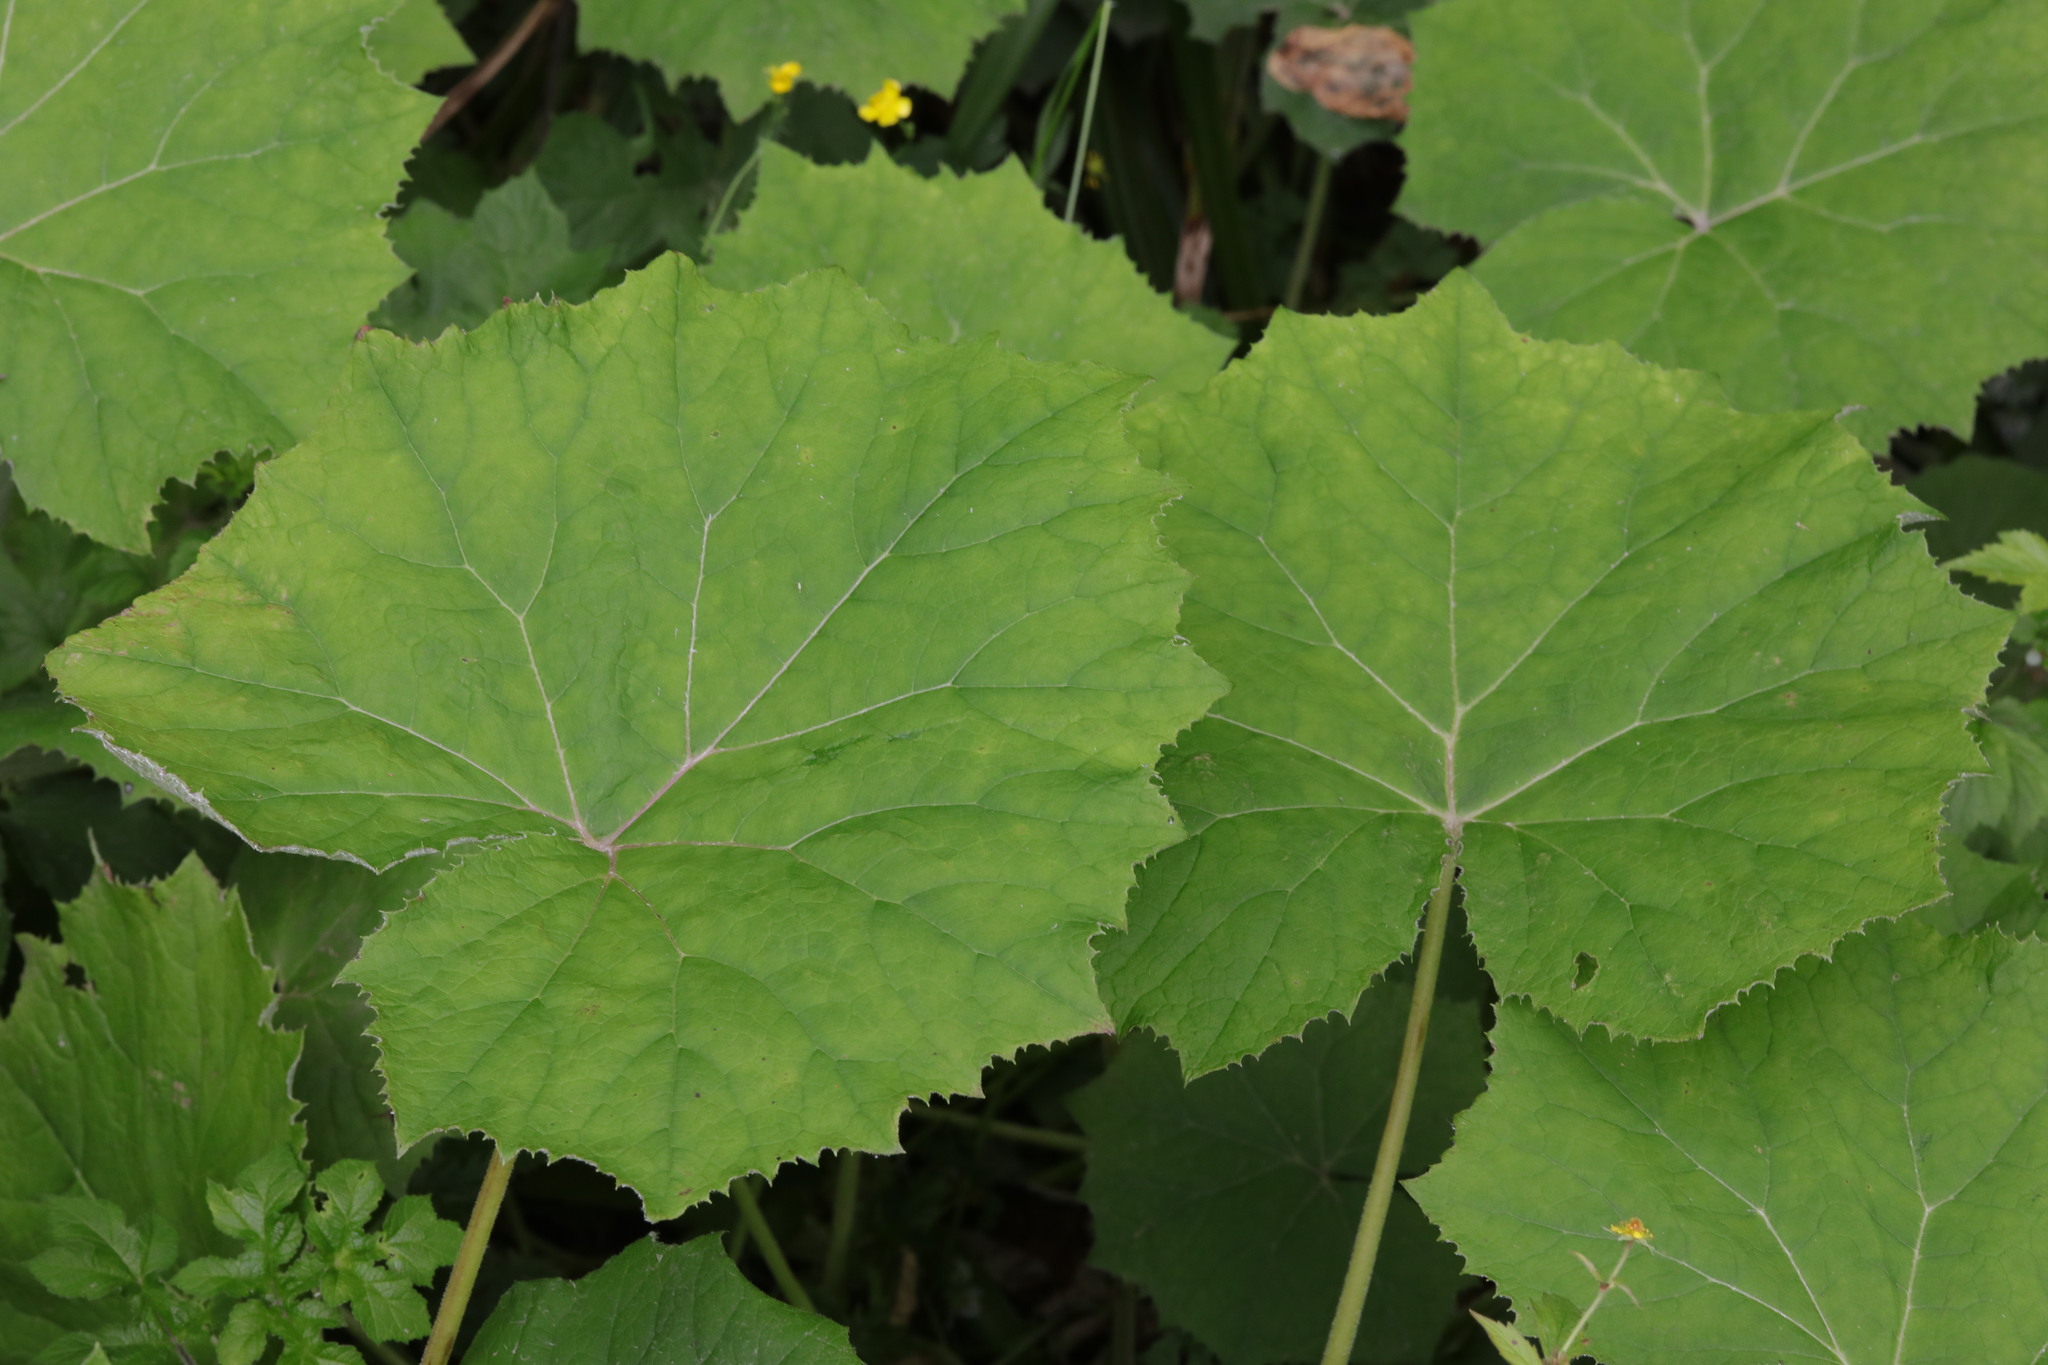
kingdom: Plantae
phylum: Tracheophyta
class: Magnoliopsida
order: Asterales
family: Asteraceae
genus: Tussilago
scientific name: Tussilago farfara
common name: Coltsfoot
